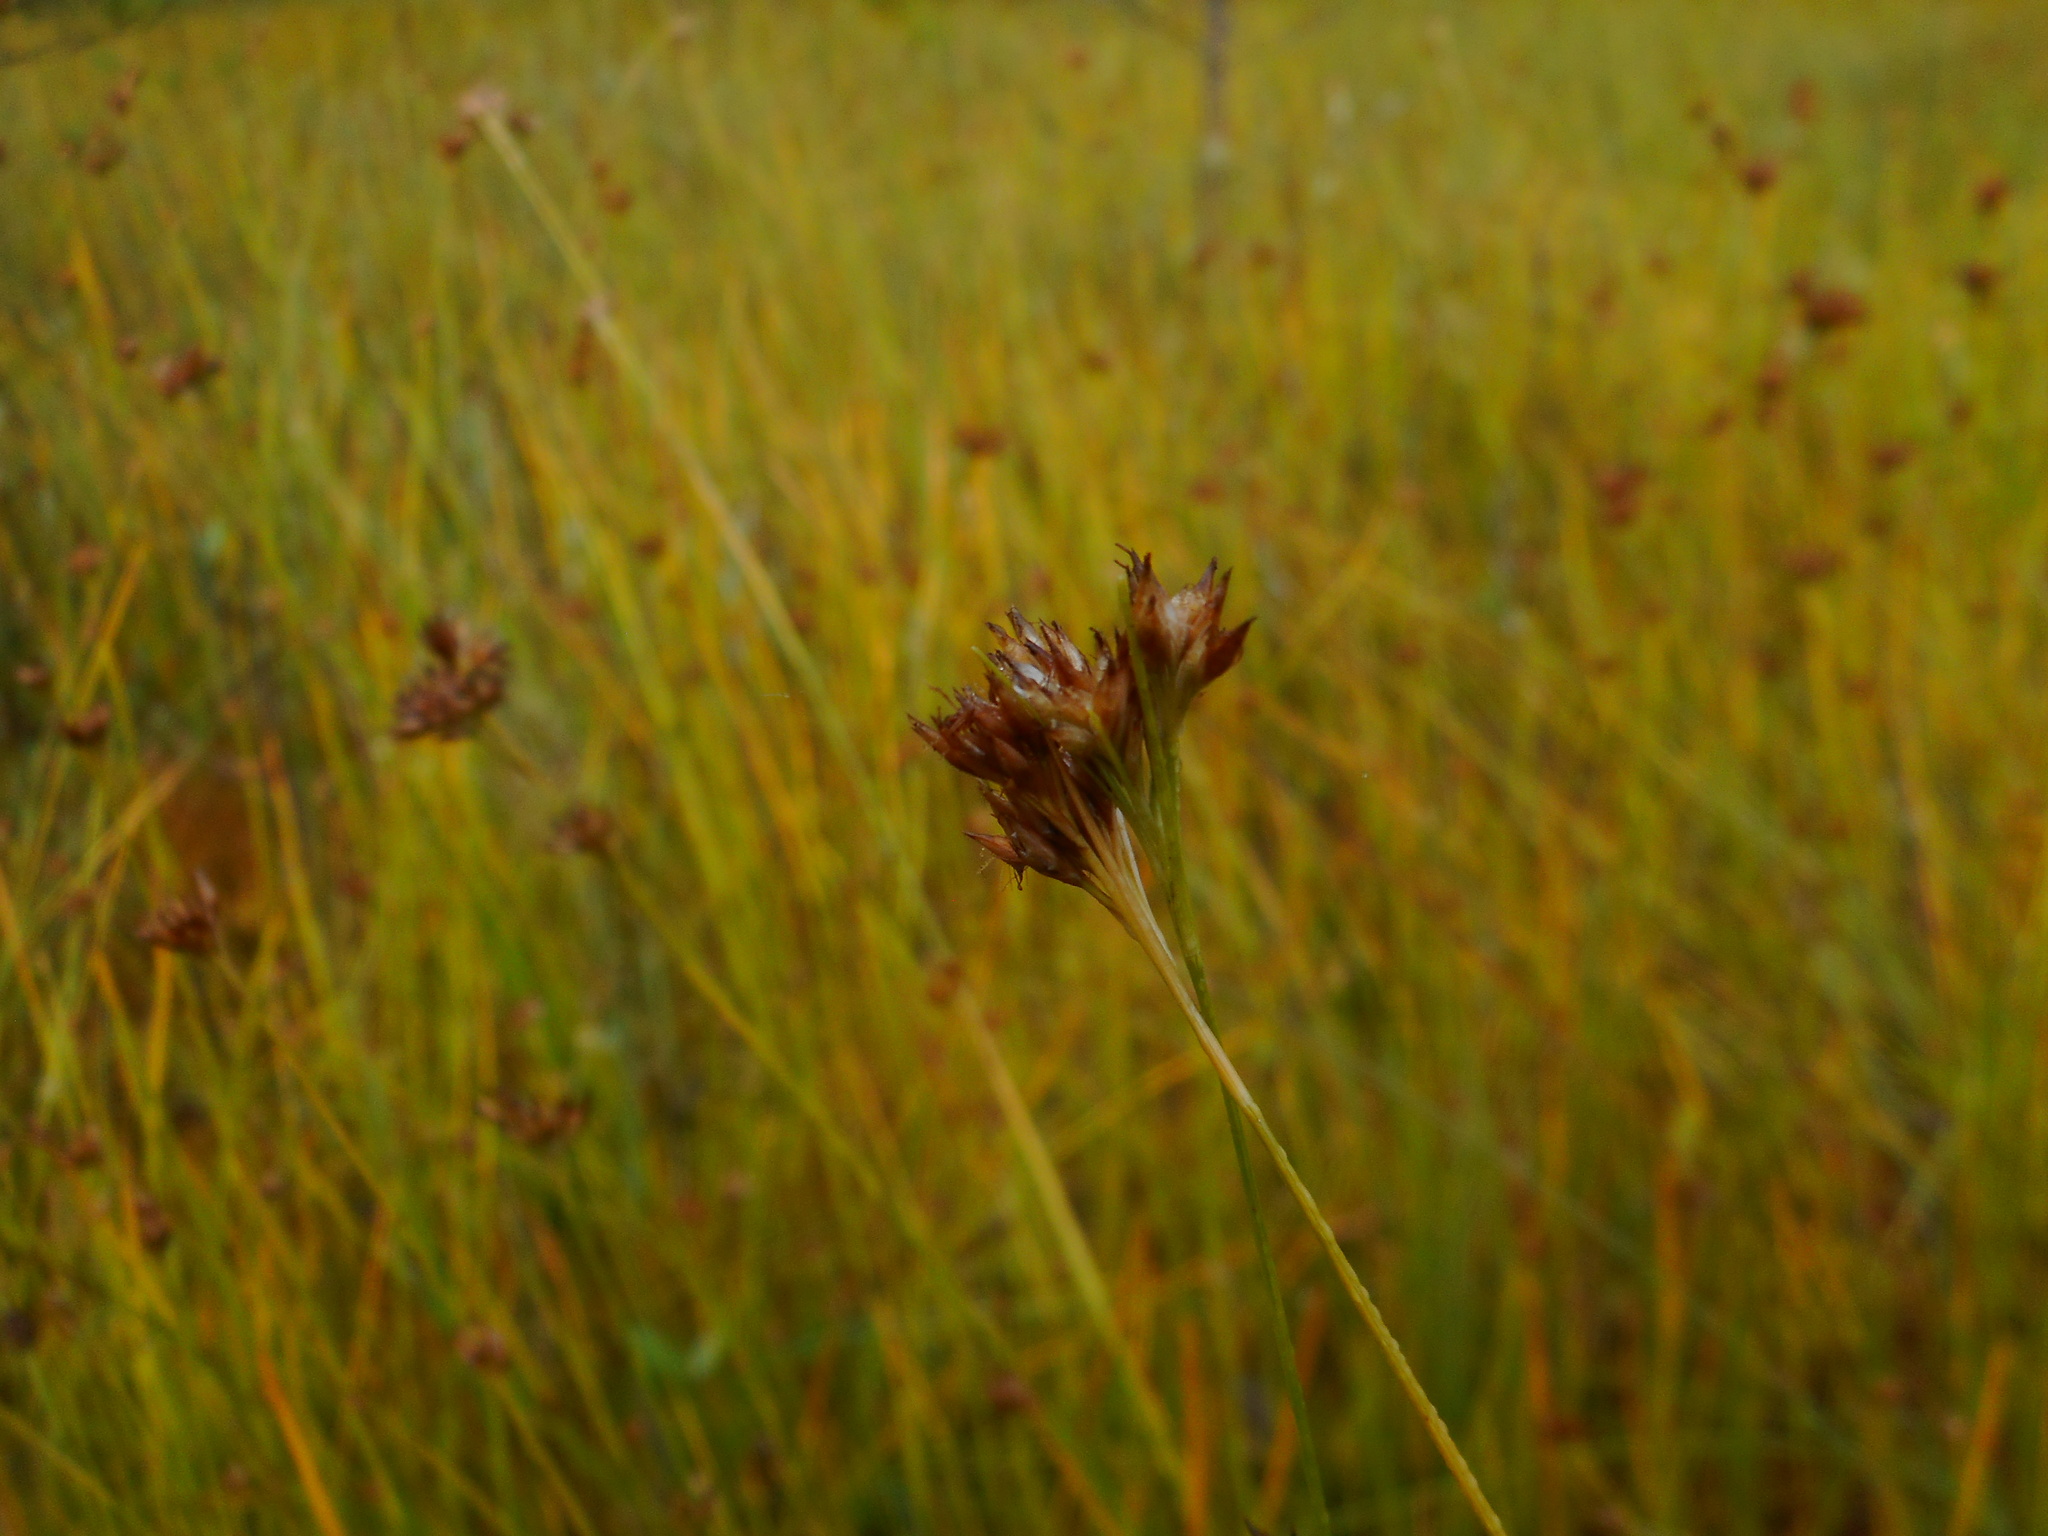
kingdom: Plantae
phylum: Tracheophyta
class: Liliopsida
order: Poales
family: Cyperaceae
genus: Rhynchospora
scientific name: Rhynchospora alba
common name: White beak-sedge
